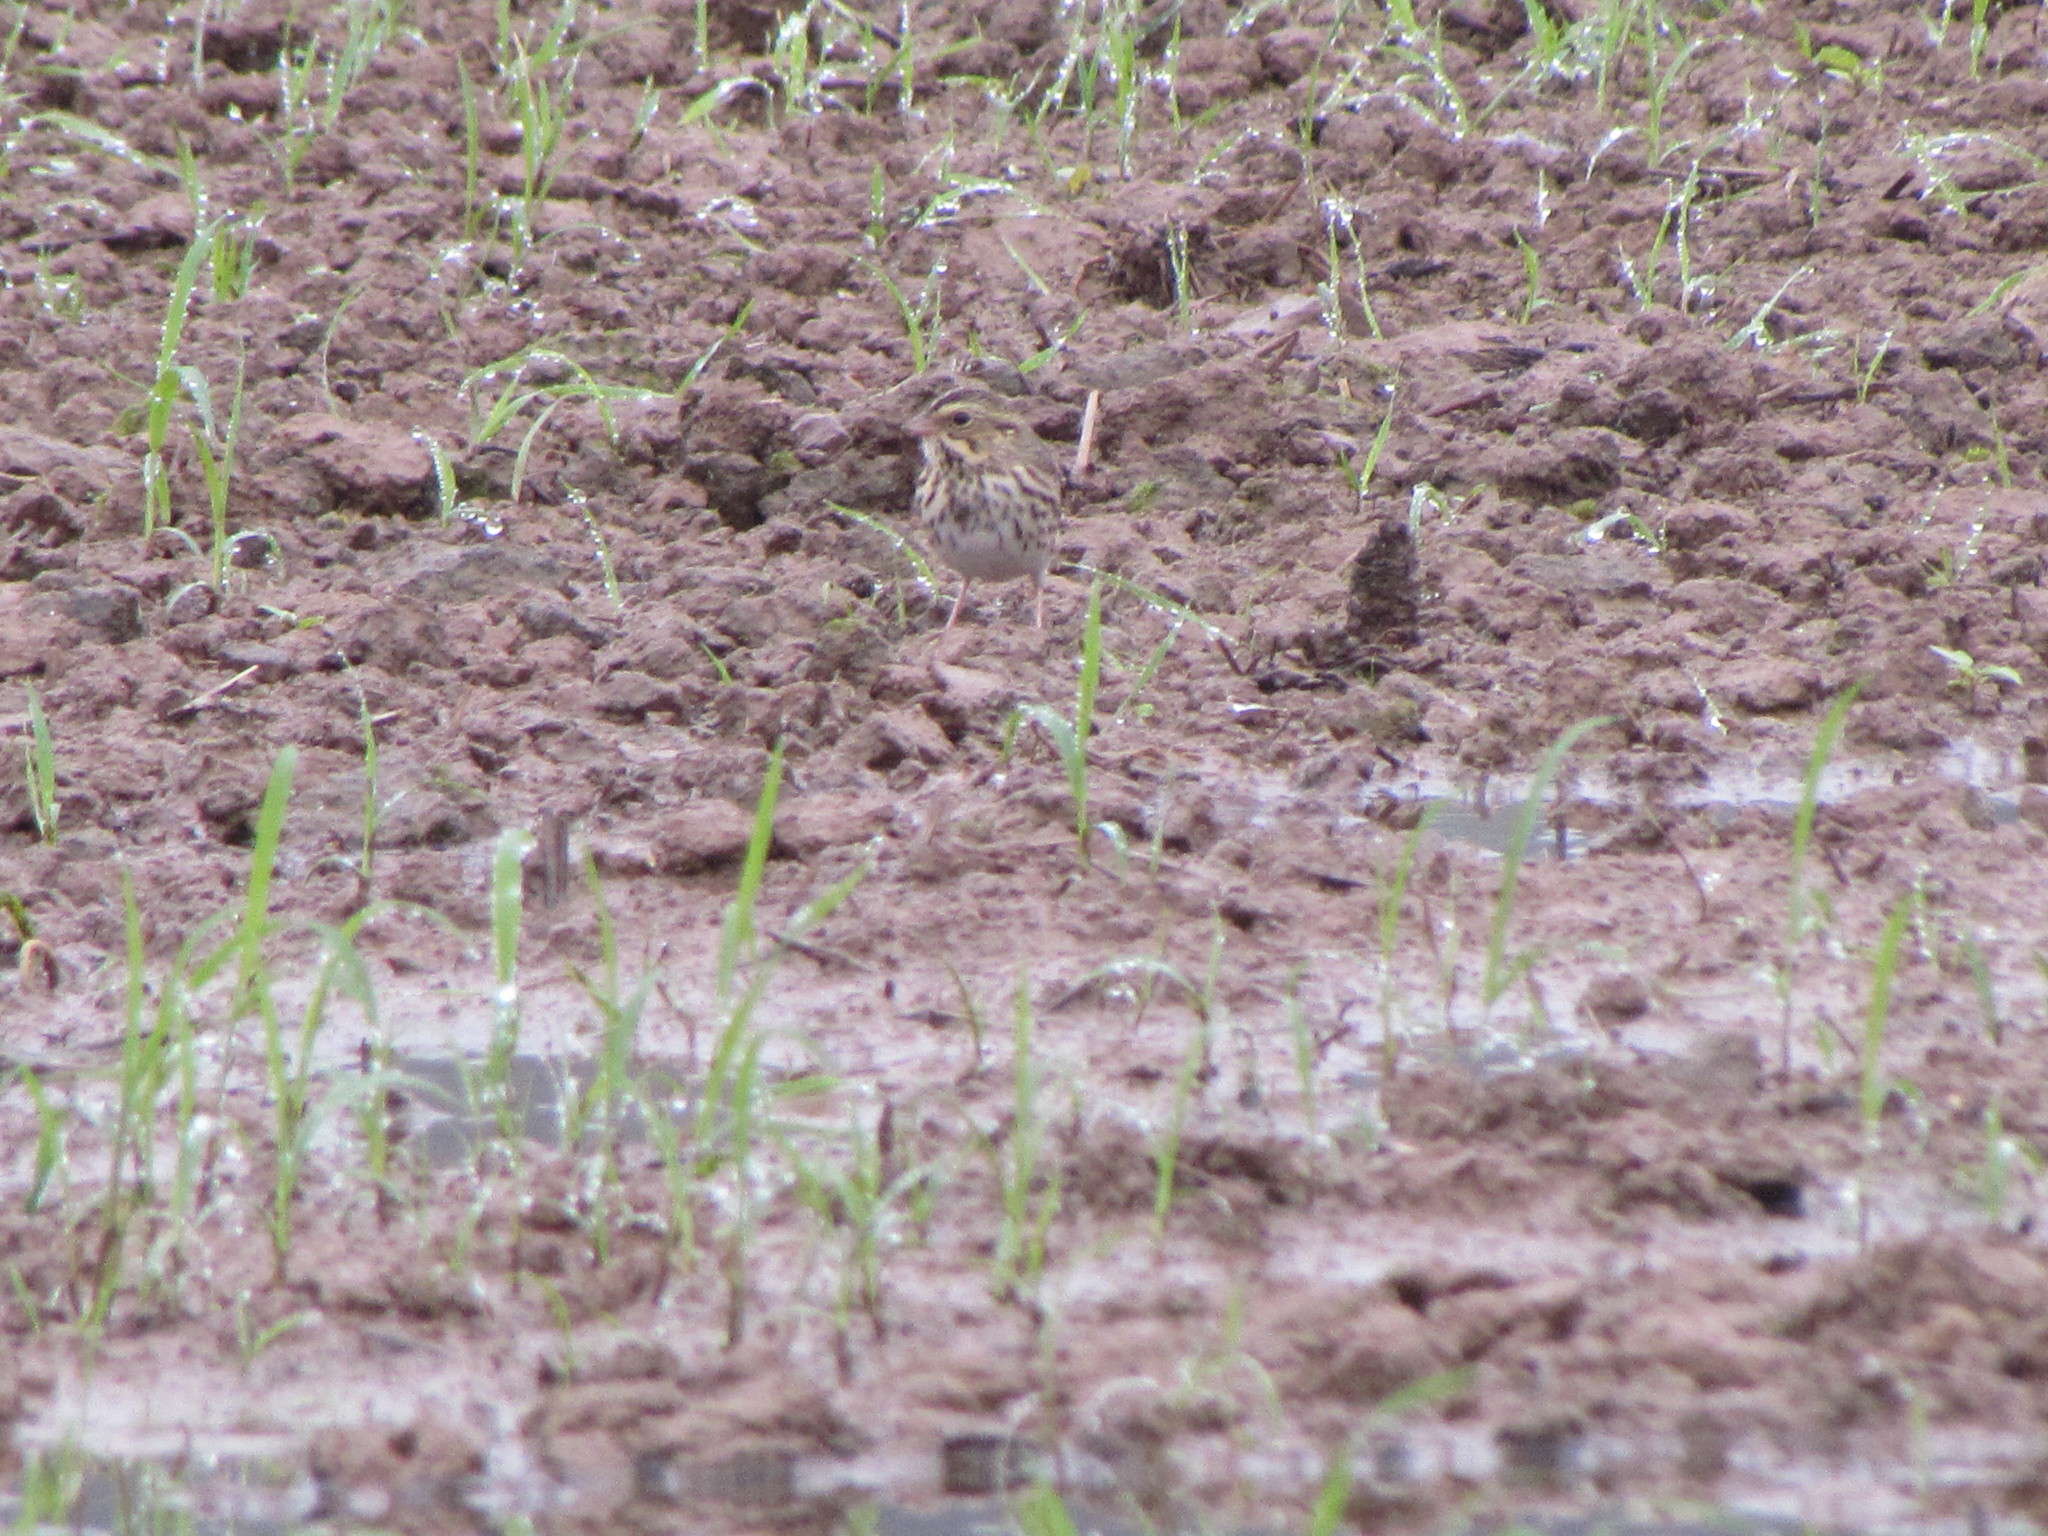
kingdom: Animalia
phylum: Chordata
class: Aves
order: Passeriformes
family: Passerellidae
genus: Passerculus
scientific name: Passerculus sandwichensis
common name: Savannah sparrow
